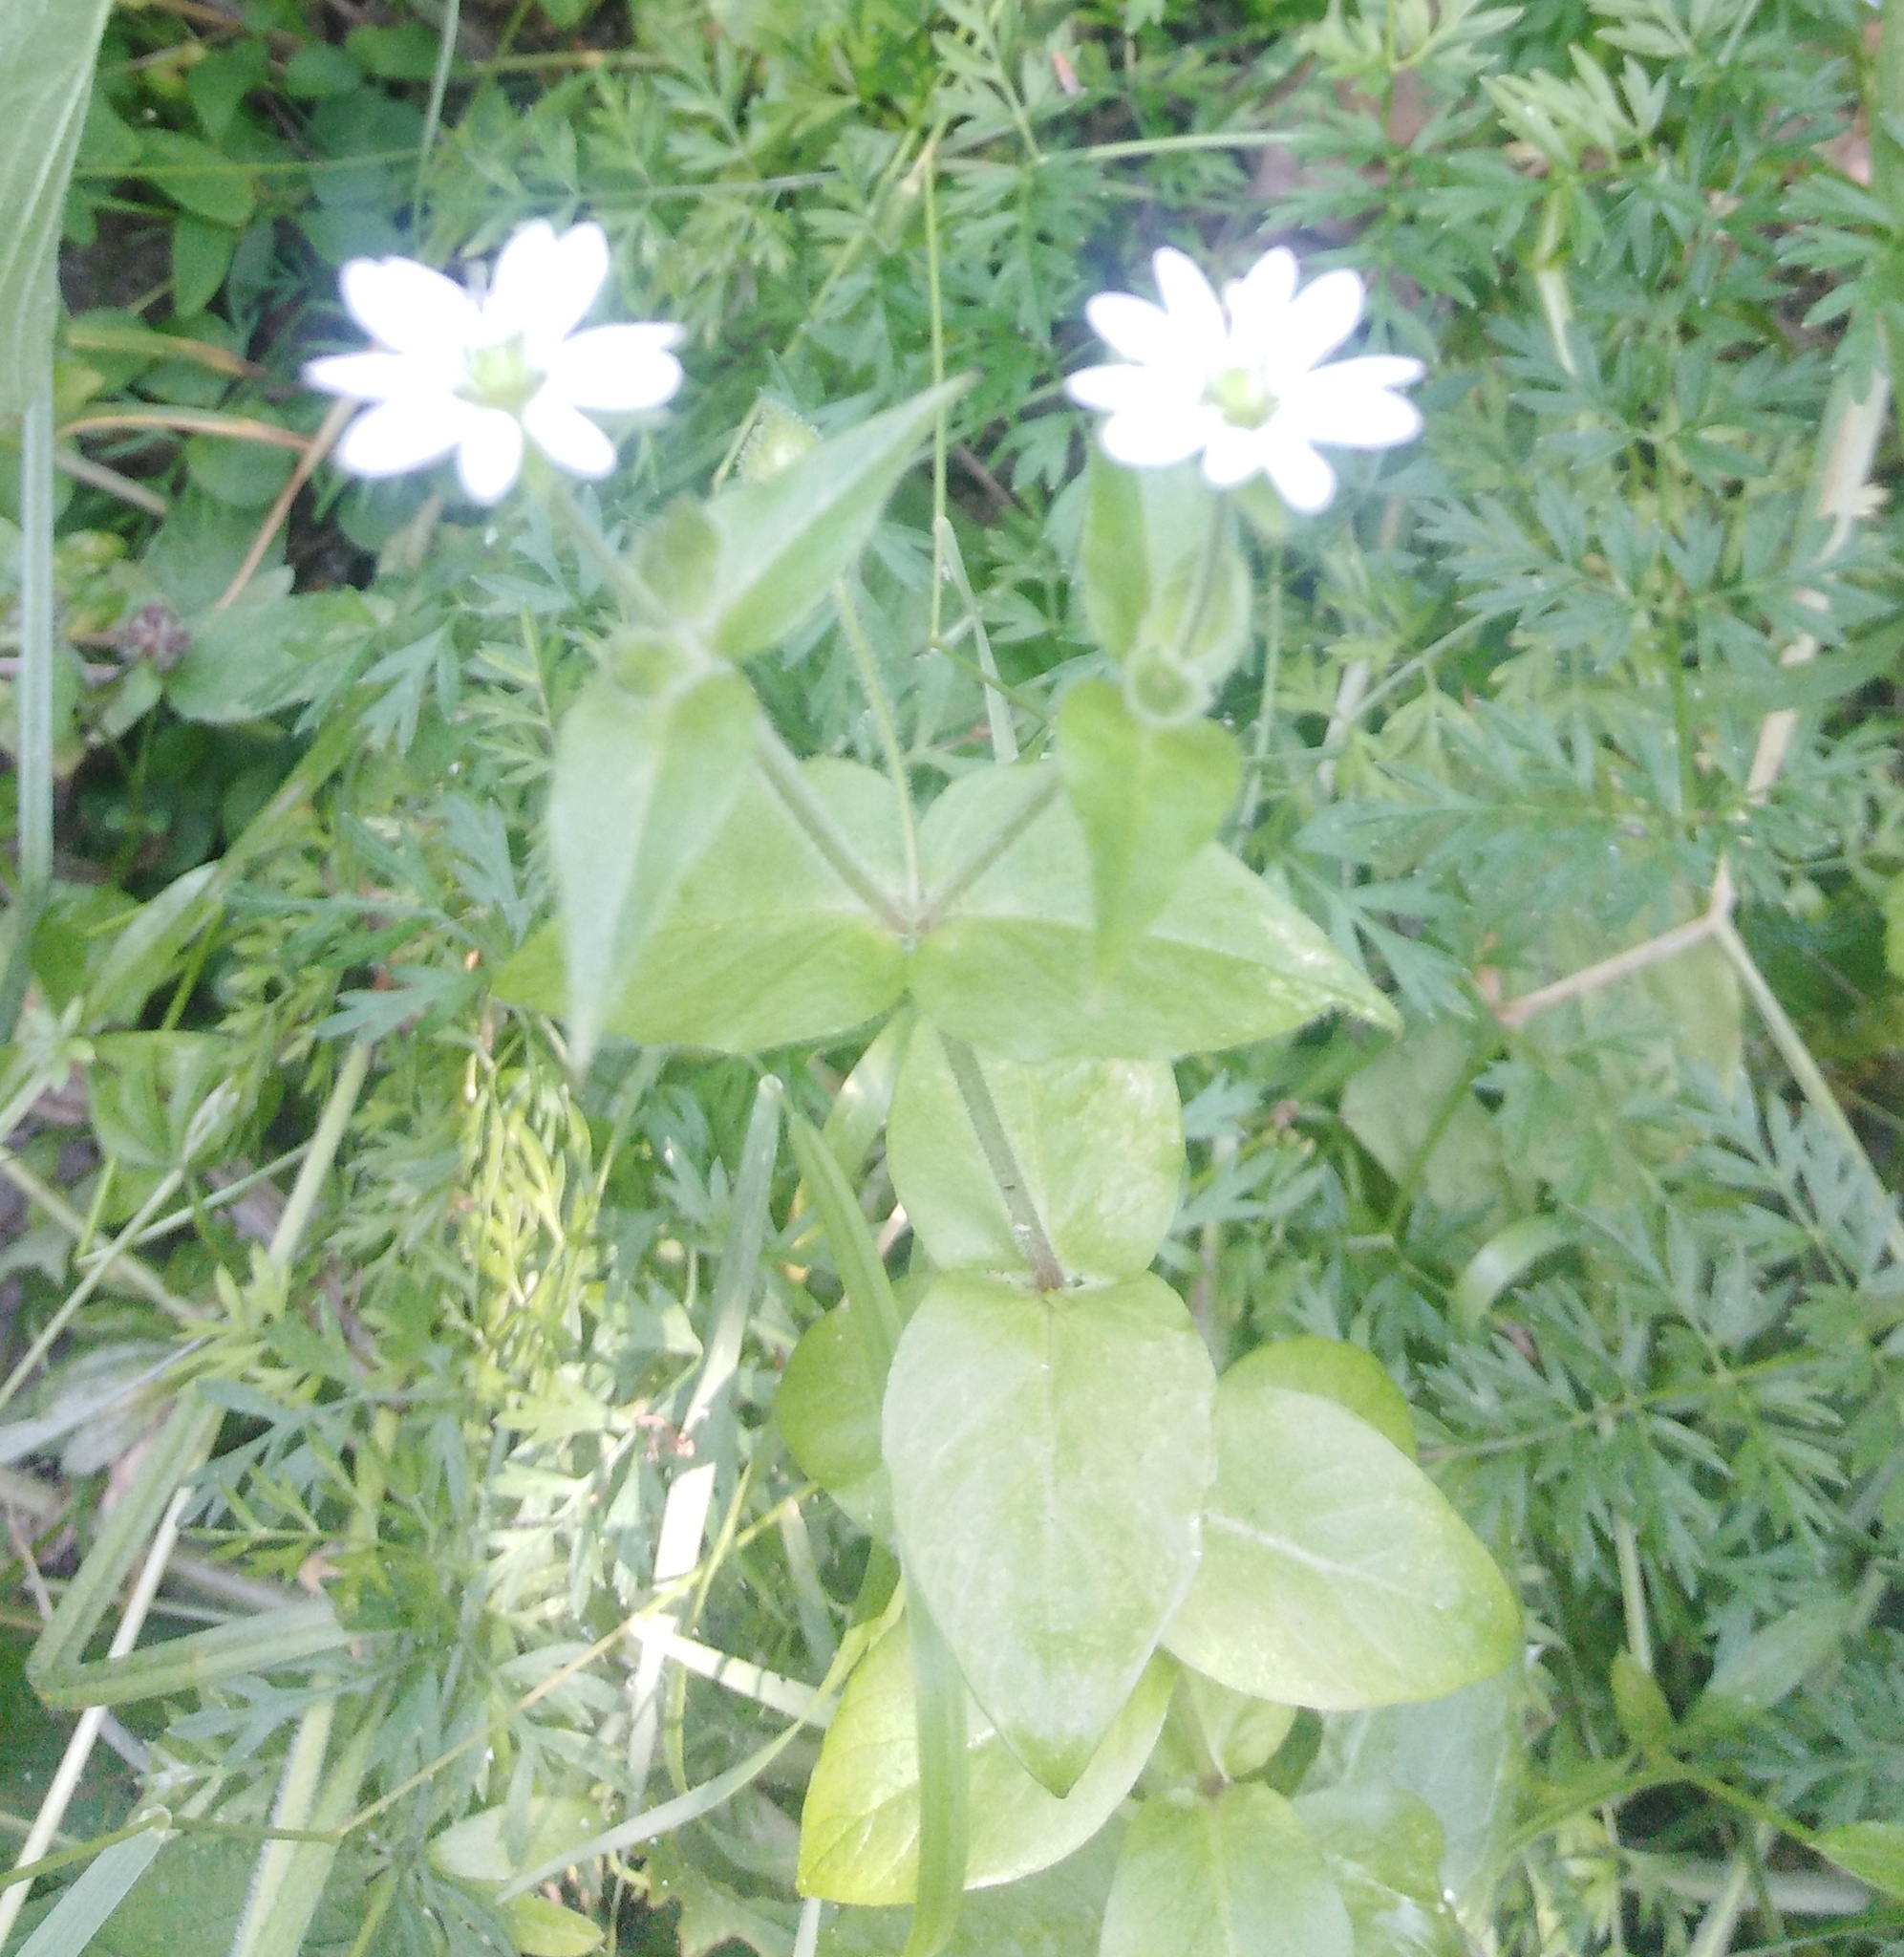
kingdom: Plantae
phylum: Tracheophyta
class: Magnoliopsida
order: Caryophyllales
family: Caryophyllaceae
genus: Stellaria
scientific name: Stellaria aquatica
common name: Water chickweed
